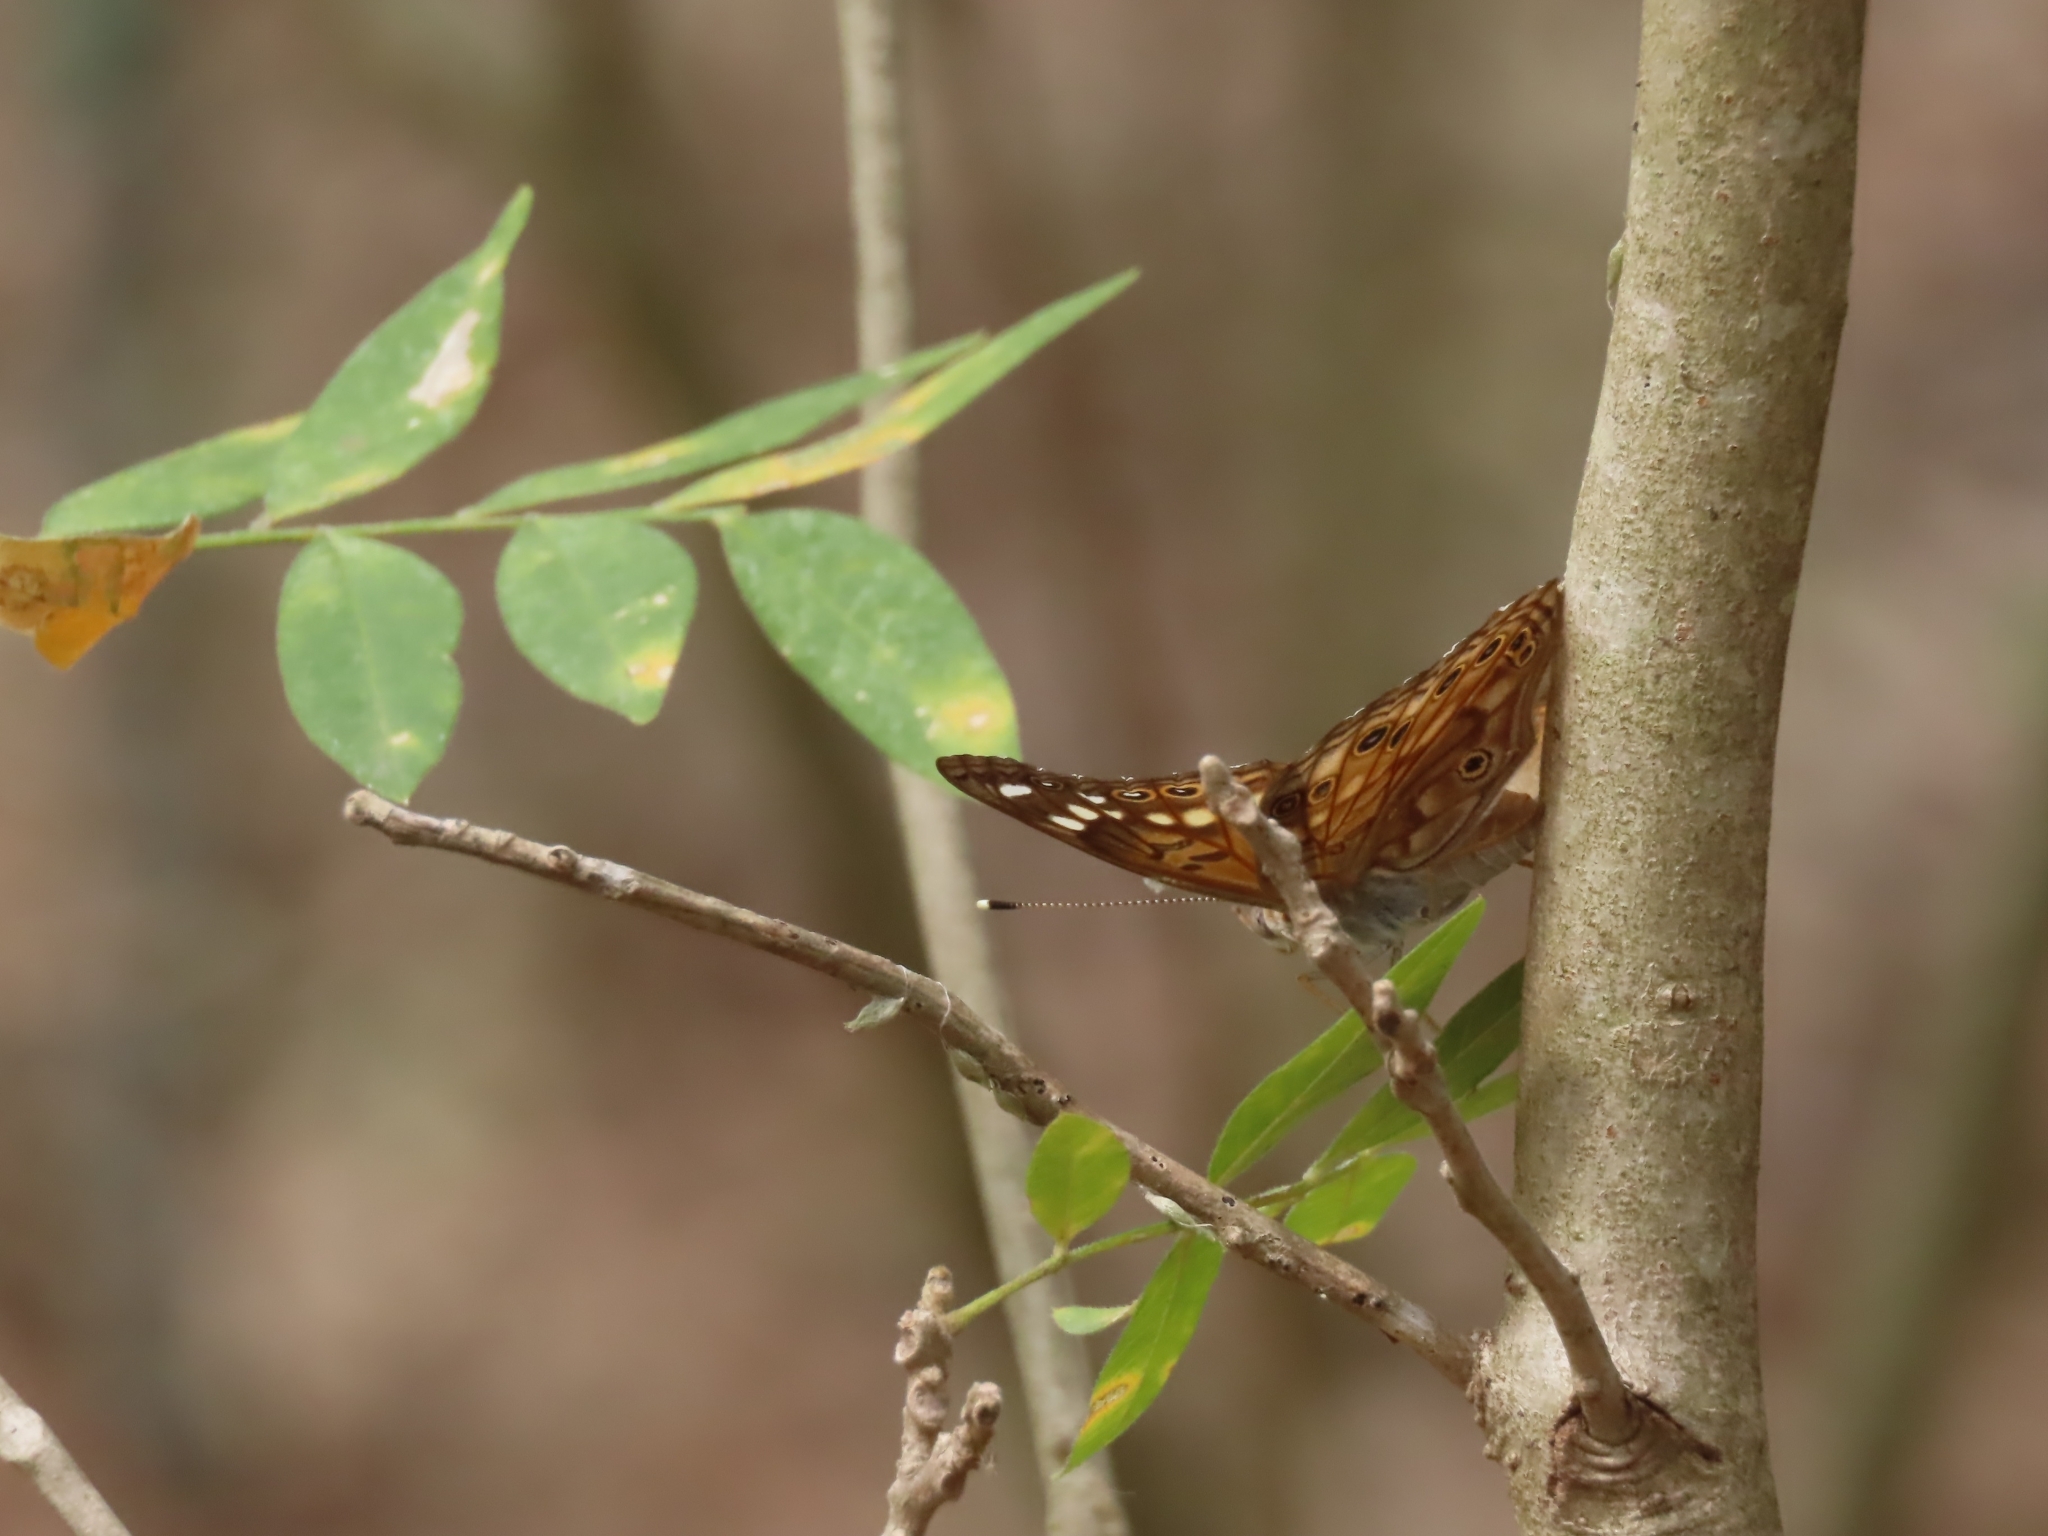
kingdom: Animalia
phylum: Arthropoda
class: Insecta
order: Lepidoptera
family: Nymphalidae
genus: Asterocampa
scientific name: Asterocampa celtis
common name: Hackberry emperor
